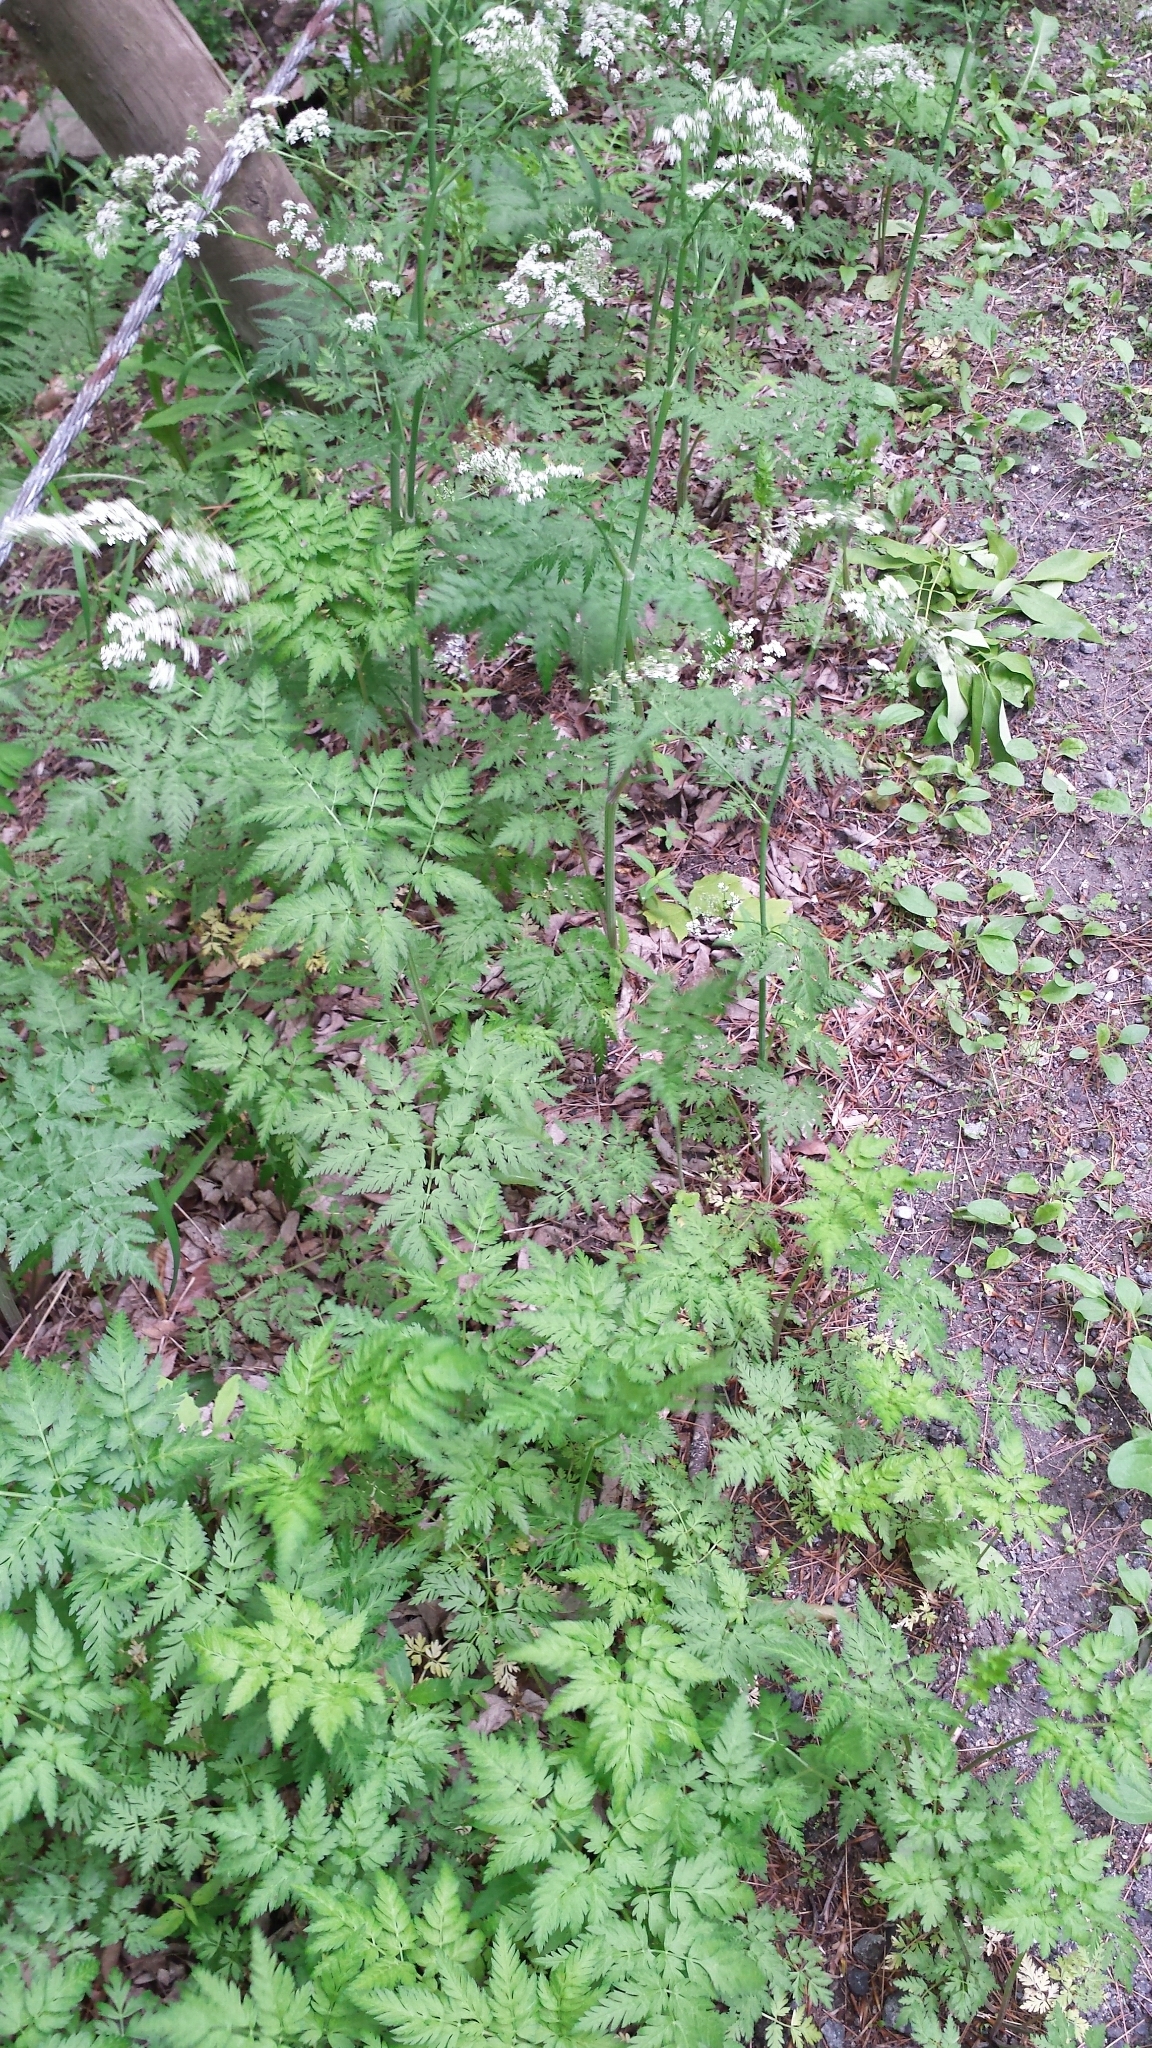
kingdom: Plantae
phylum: Tracheophyta
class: Magnoliopsida
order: Apiales
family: Apiaceae
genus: Anthriscus
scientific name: Anthriscus sylvestris
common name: Cow parsley
